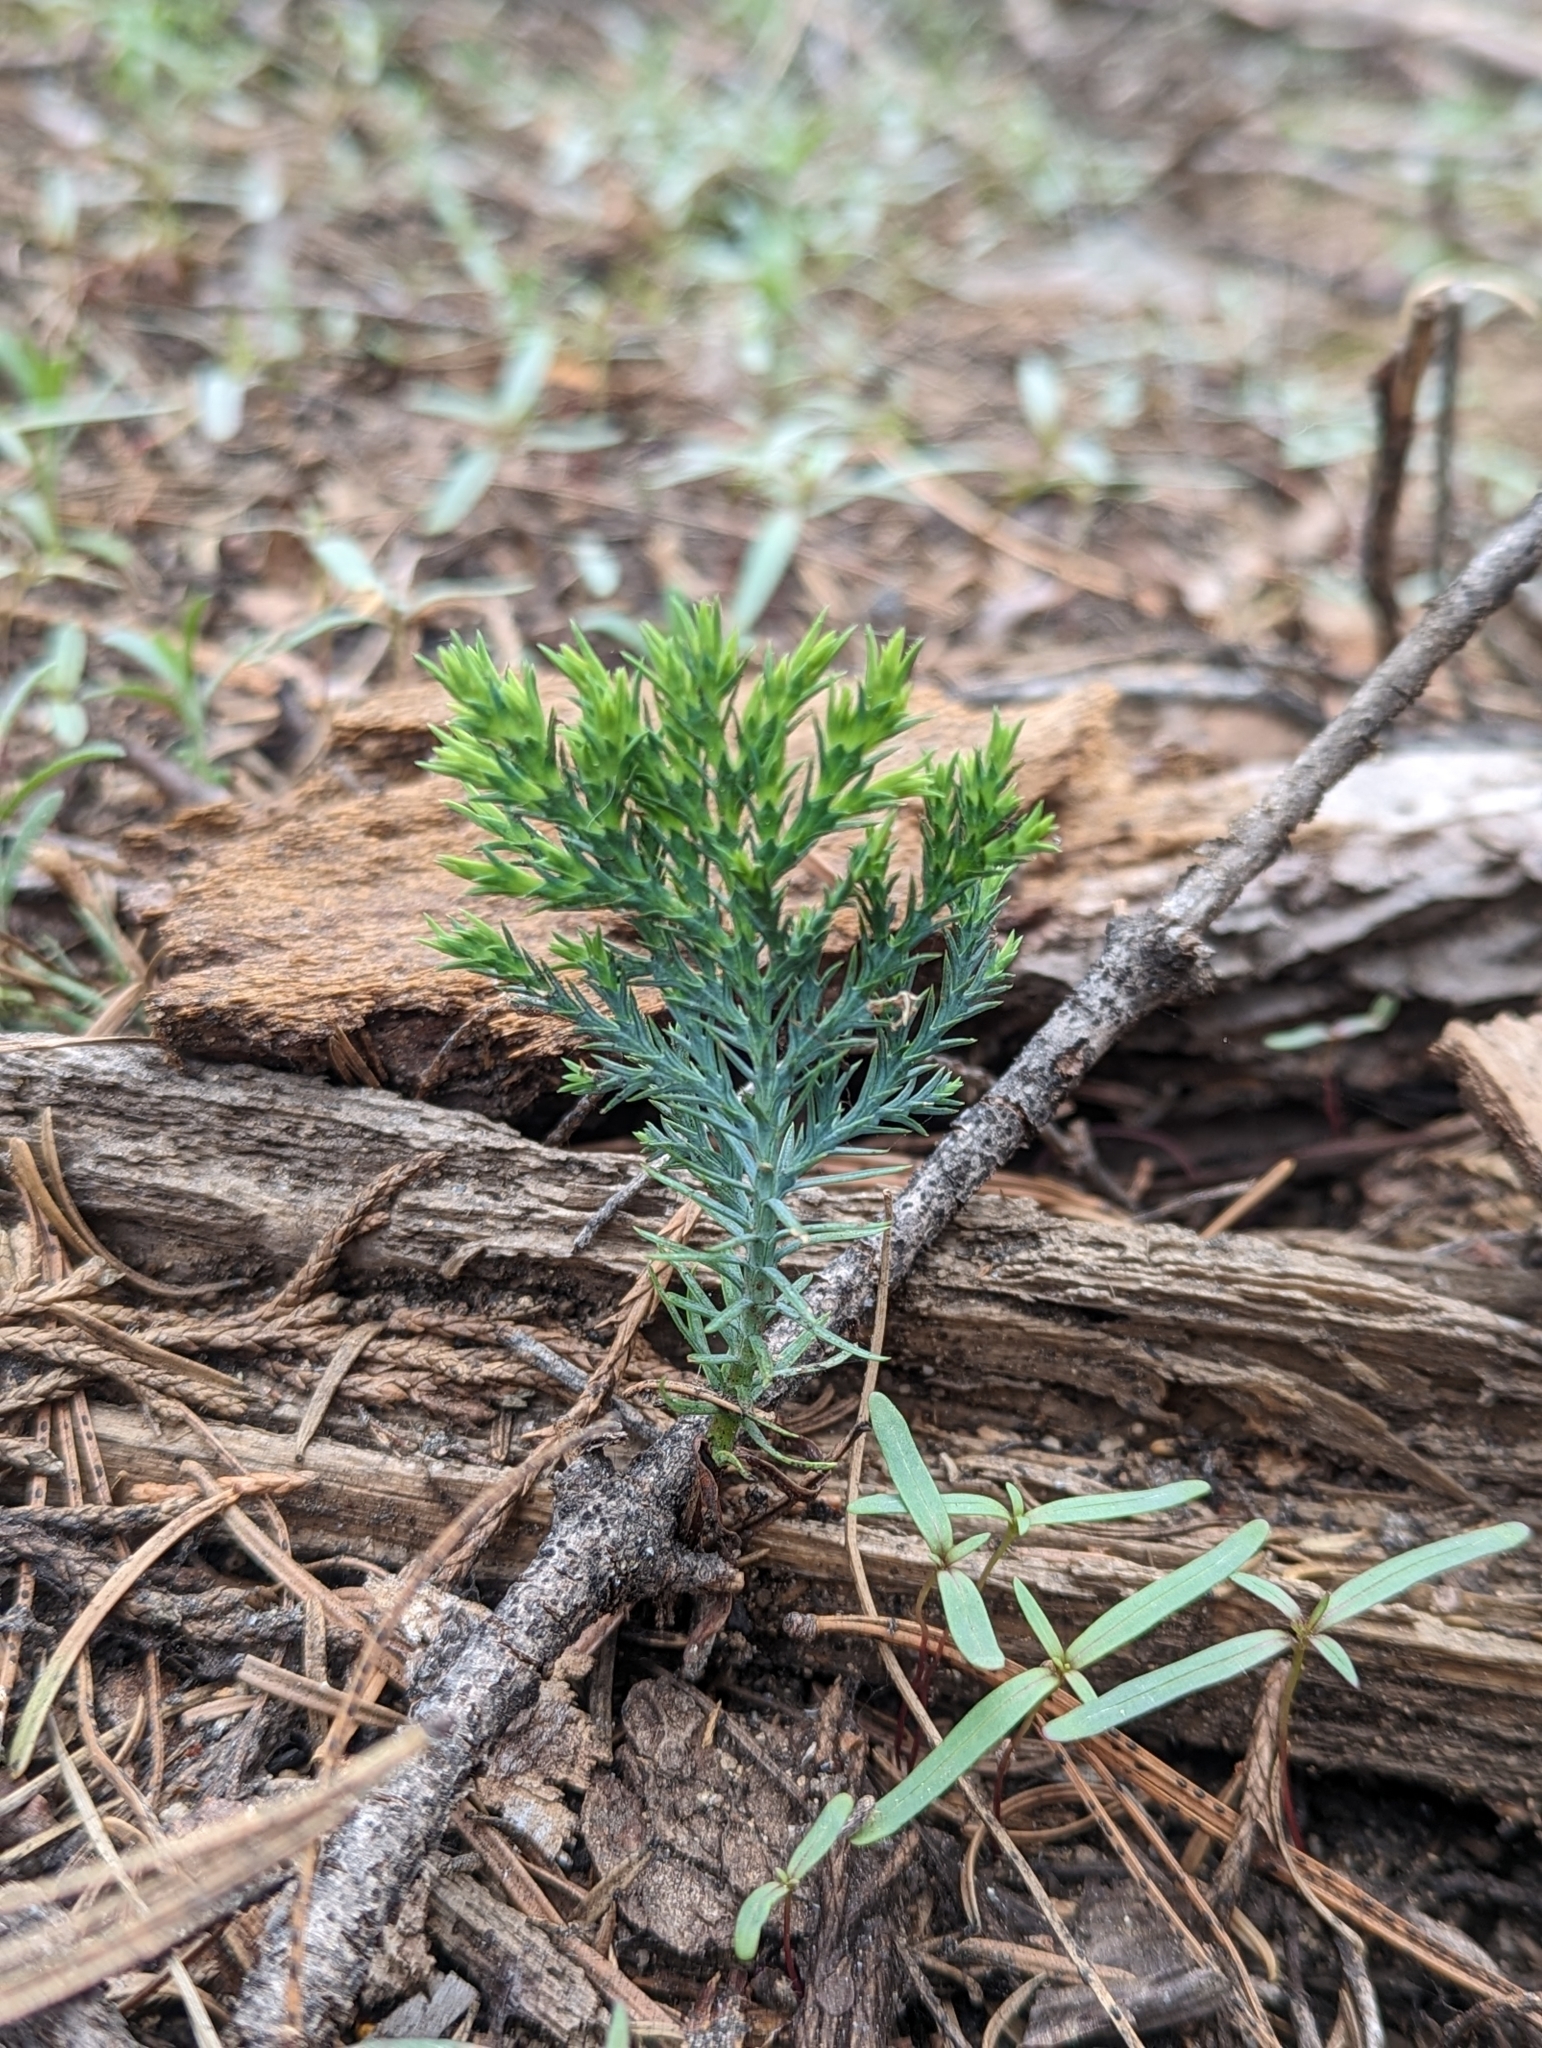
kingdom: Plantae
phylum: Tracheophyta
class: Pinopsida
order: Pinales
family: Cupressaceae
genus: Calocedrus
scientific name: Calocedrus decurrens
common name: Californian incense-cedar
